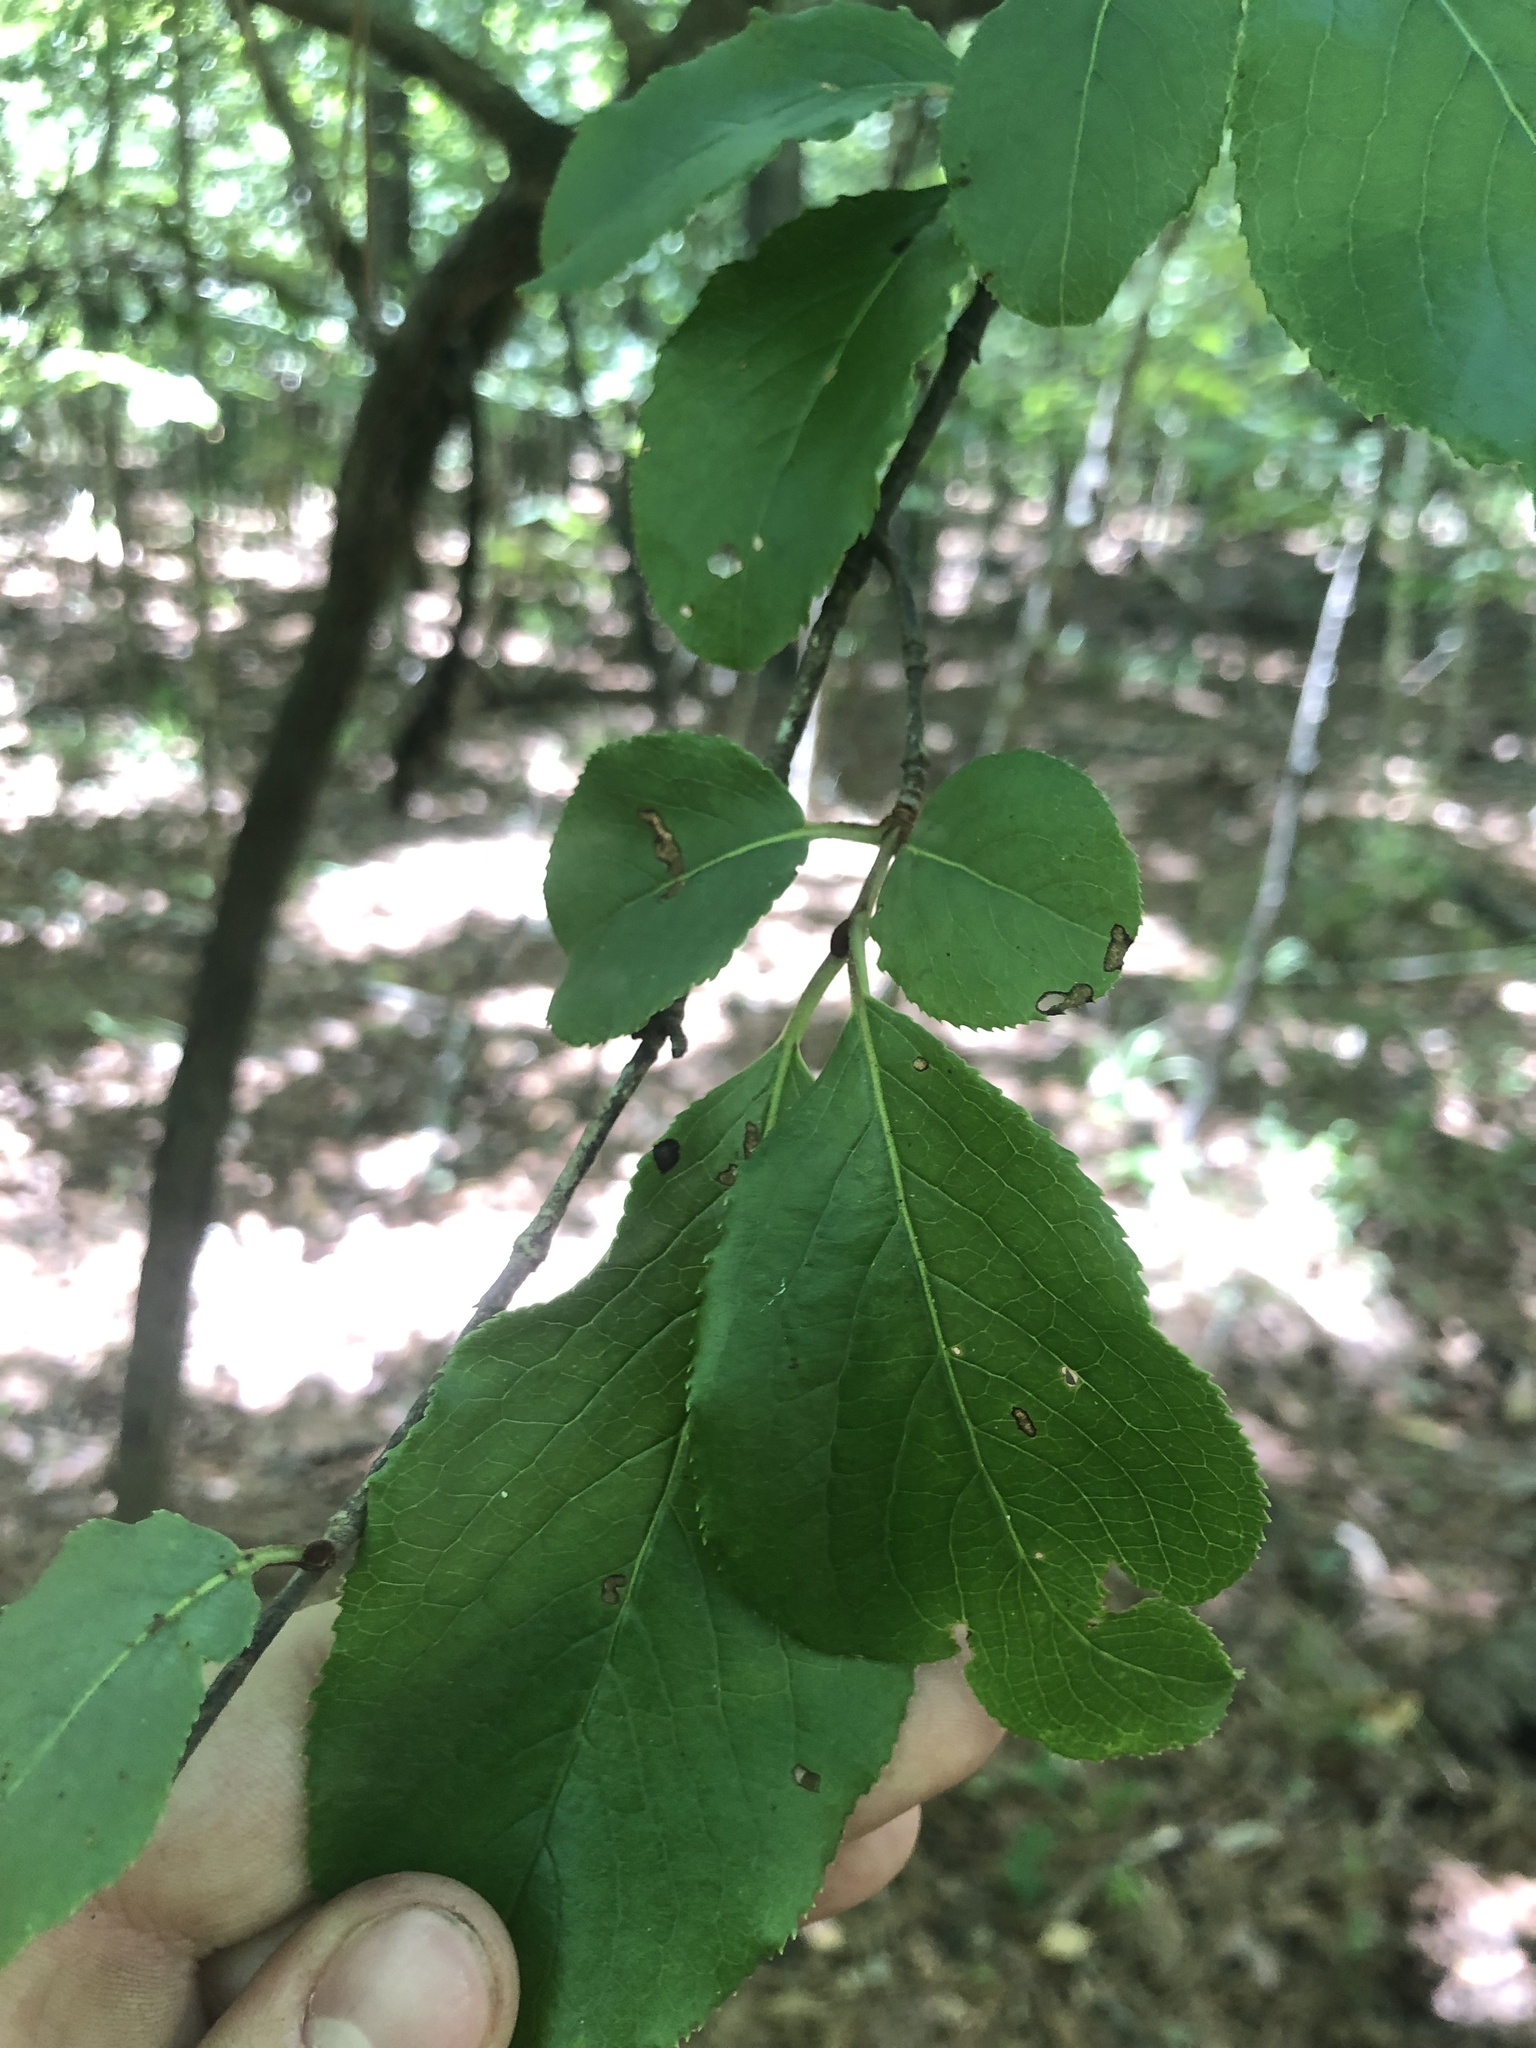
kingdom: Plantae
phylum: Tracheophyta
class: Magnoliopsida
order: Dipsacales
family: Viburnaceae
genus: Viburnum
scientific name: Viburnum rufidulum
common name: Blue haw
